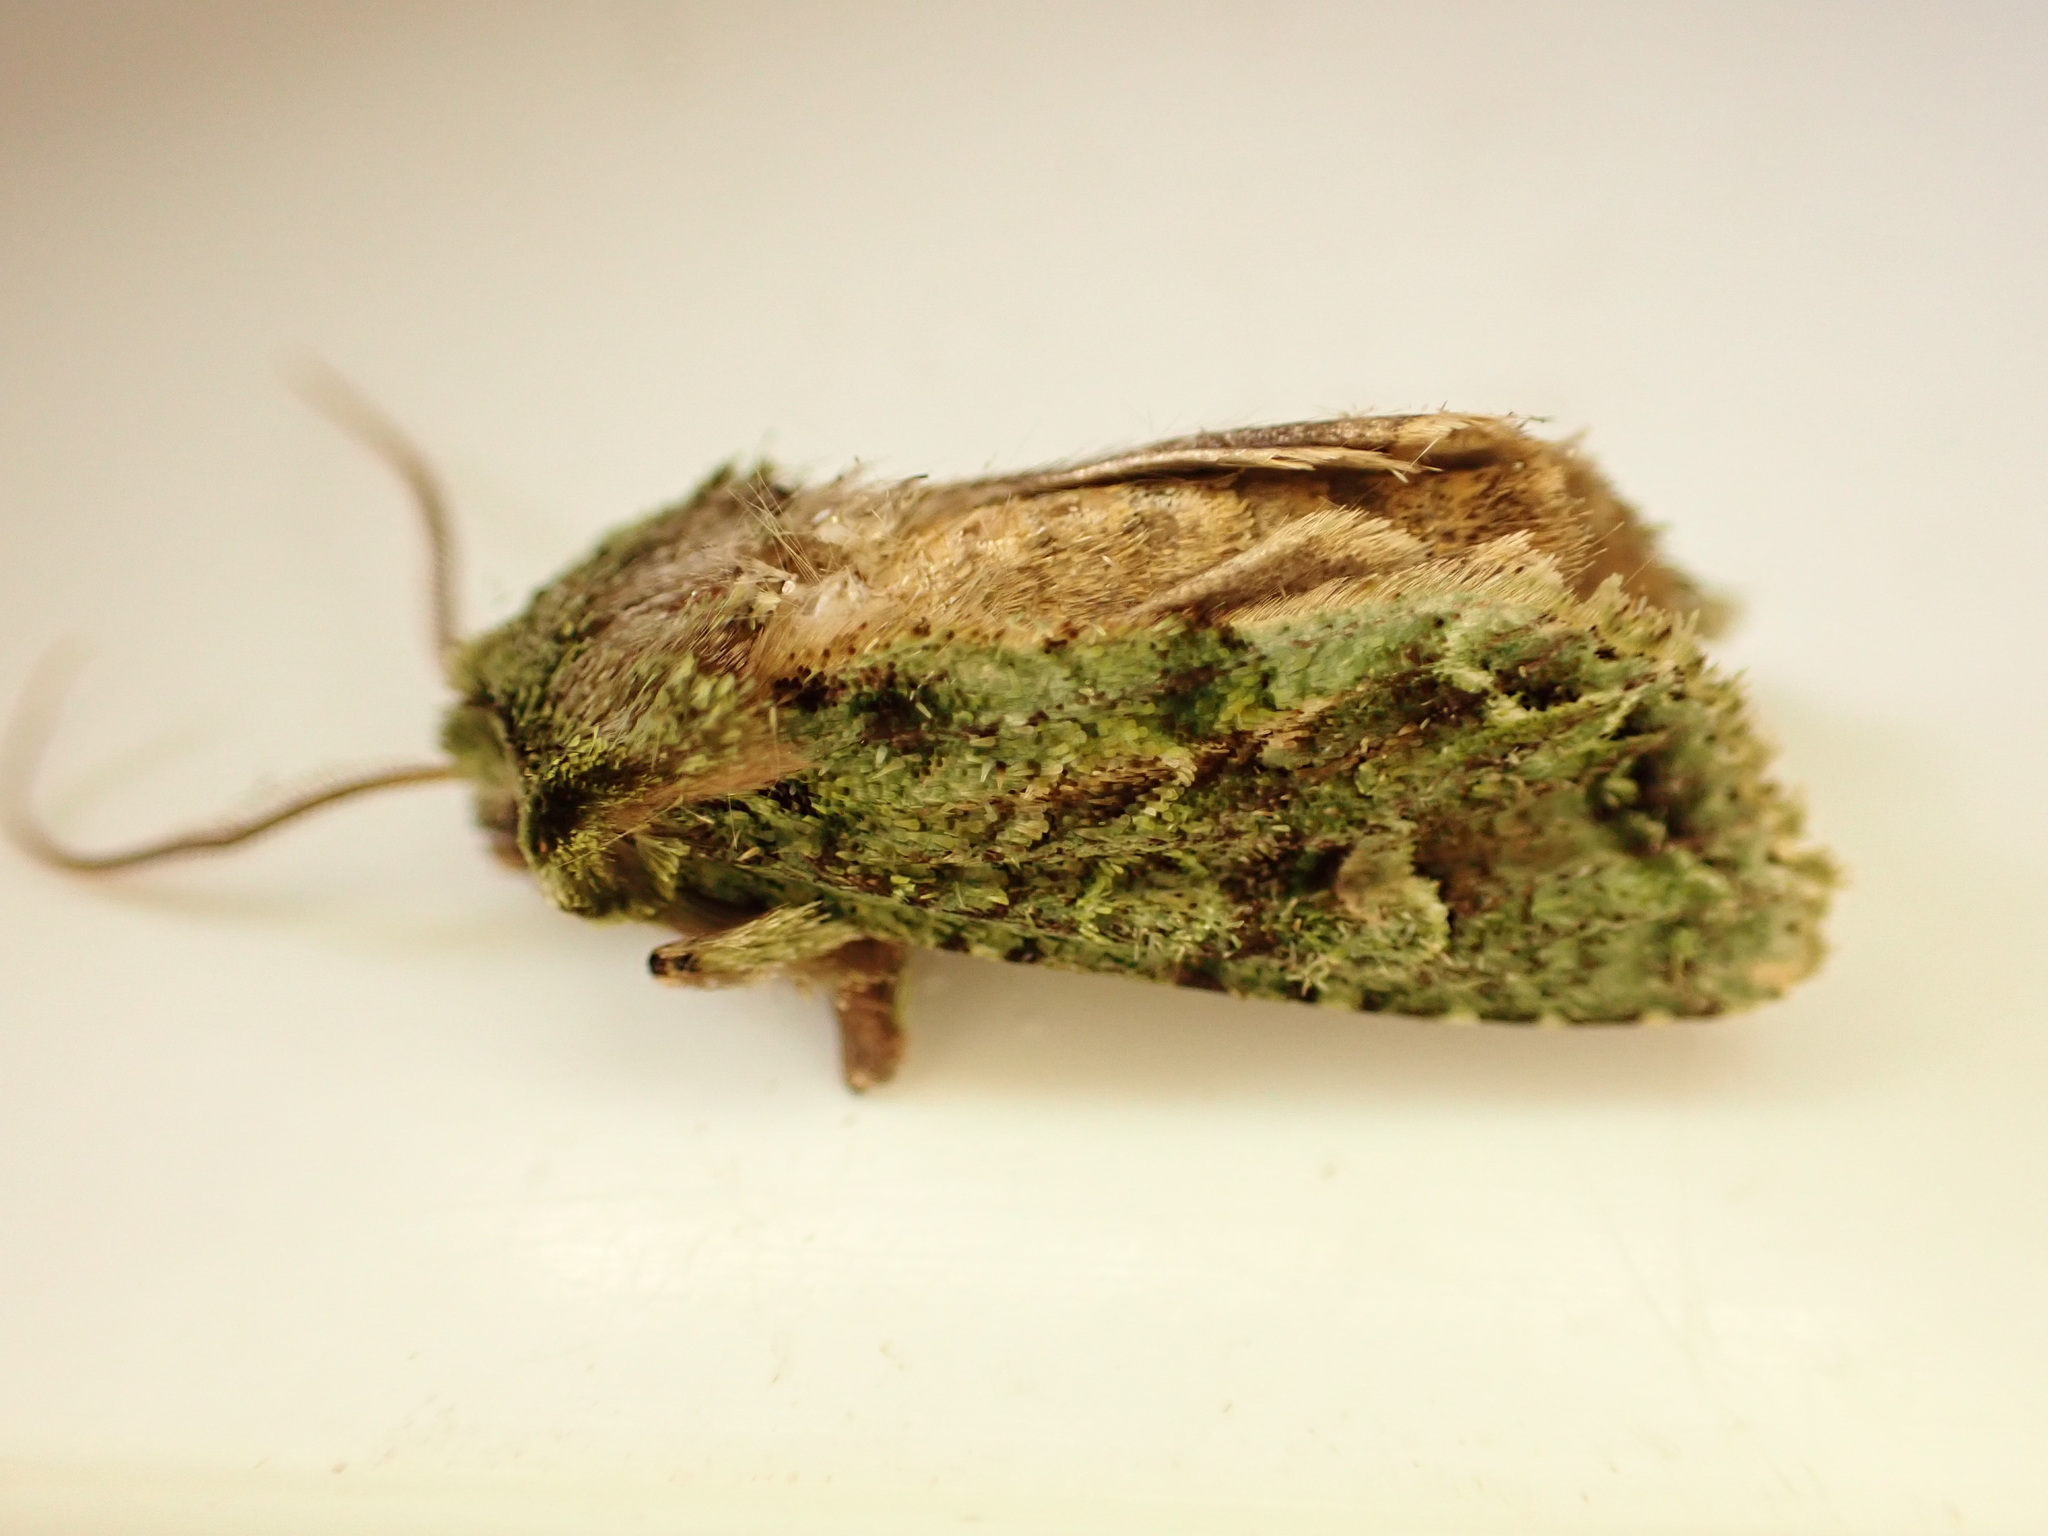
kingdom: Animalia
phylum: Arthropoda
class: Insecta
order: Lepidoptera
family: Noctuidae
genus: Ichneutica
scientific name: Ichneutica
